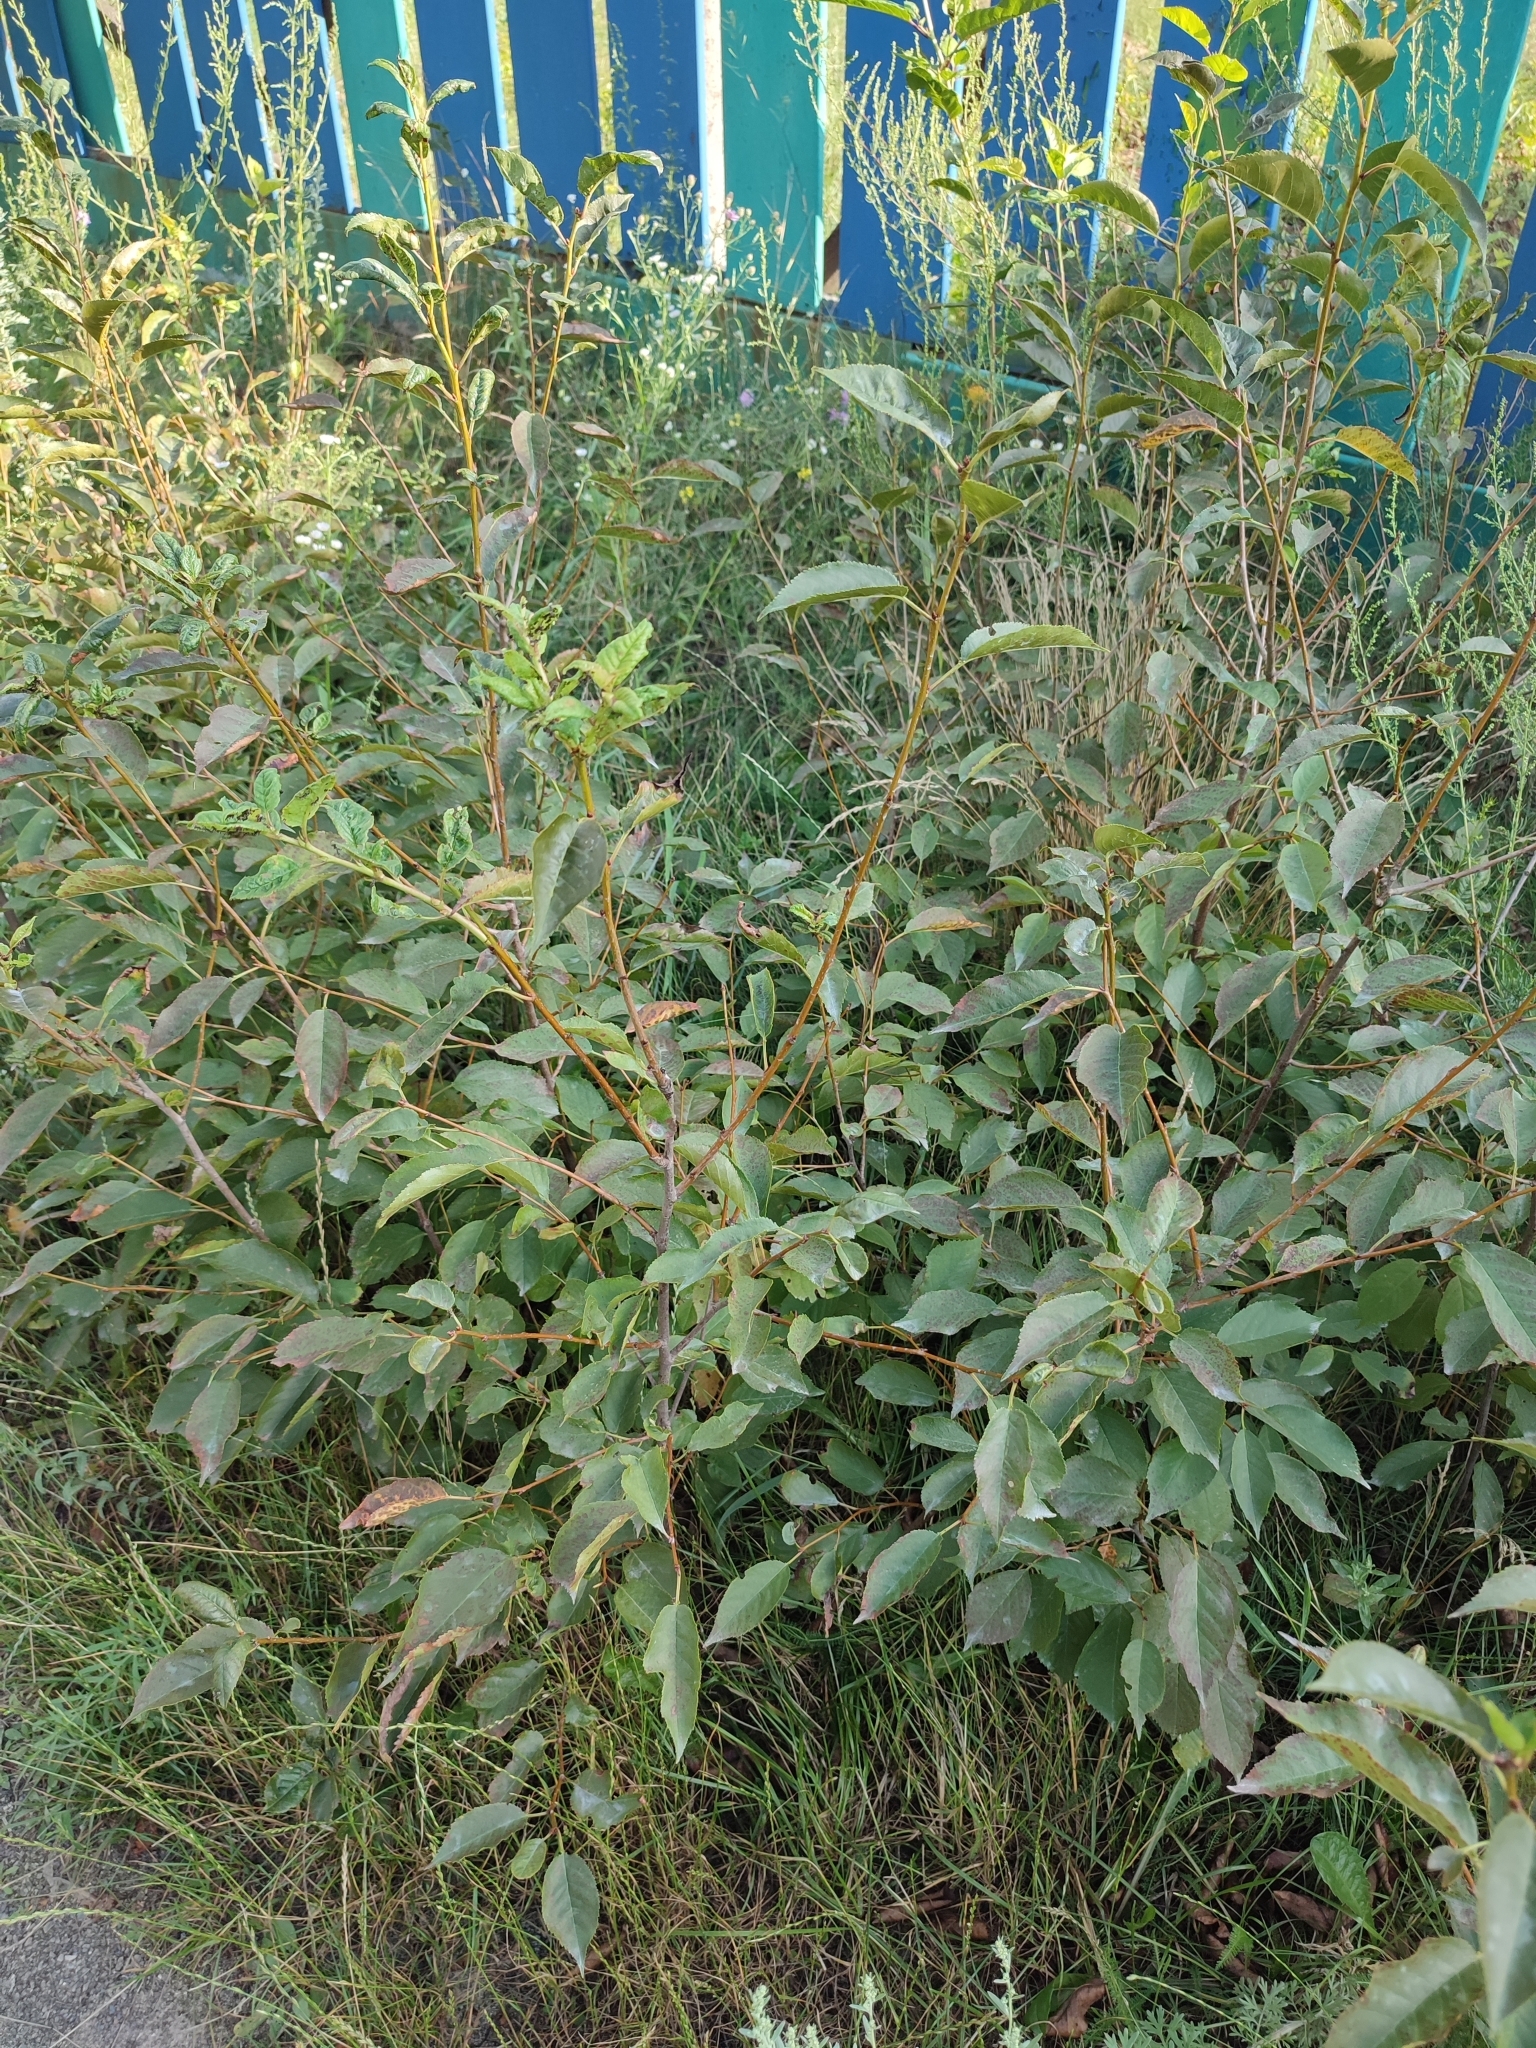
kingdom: Plantae
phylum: Tracheophyta
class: Magnoliopsida
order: Rosales
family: Rosaceae
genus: Prunus
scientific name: Prunus cerasus
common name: Morello cherry
